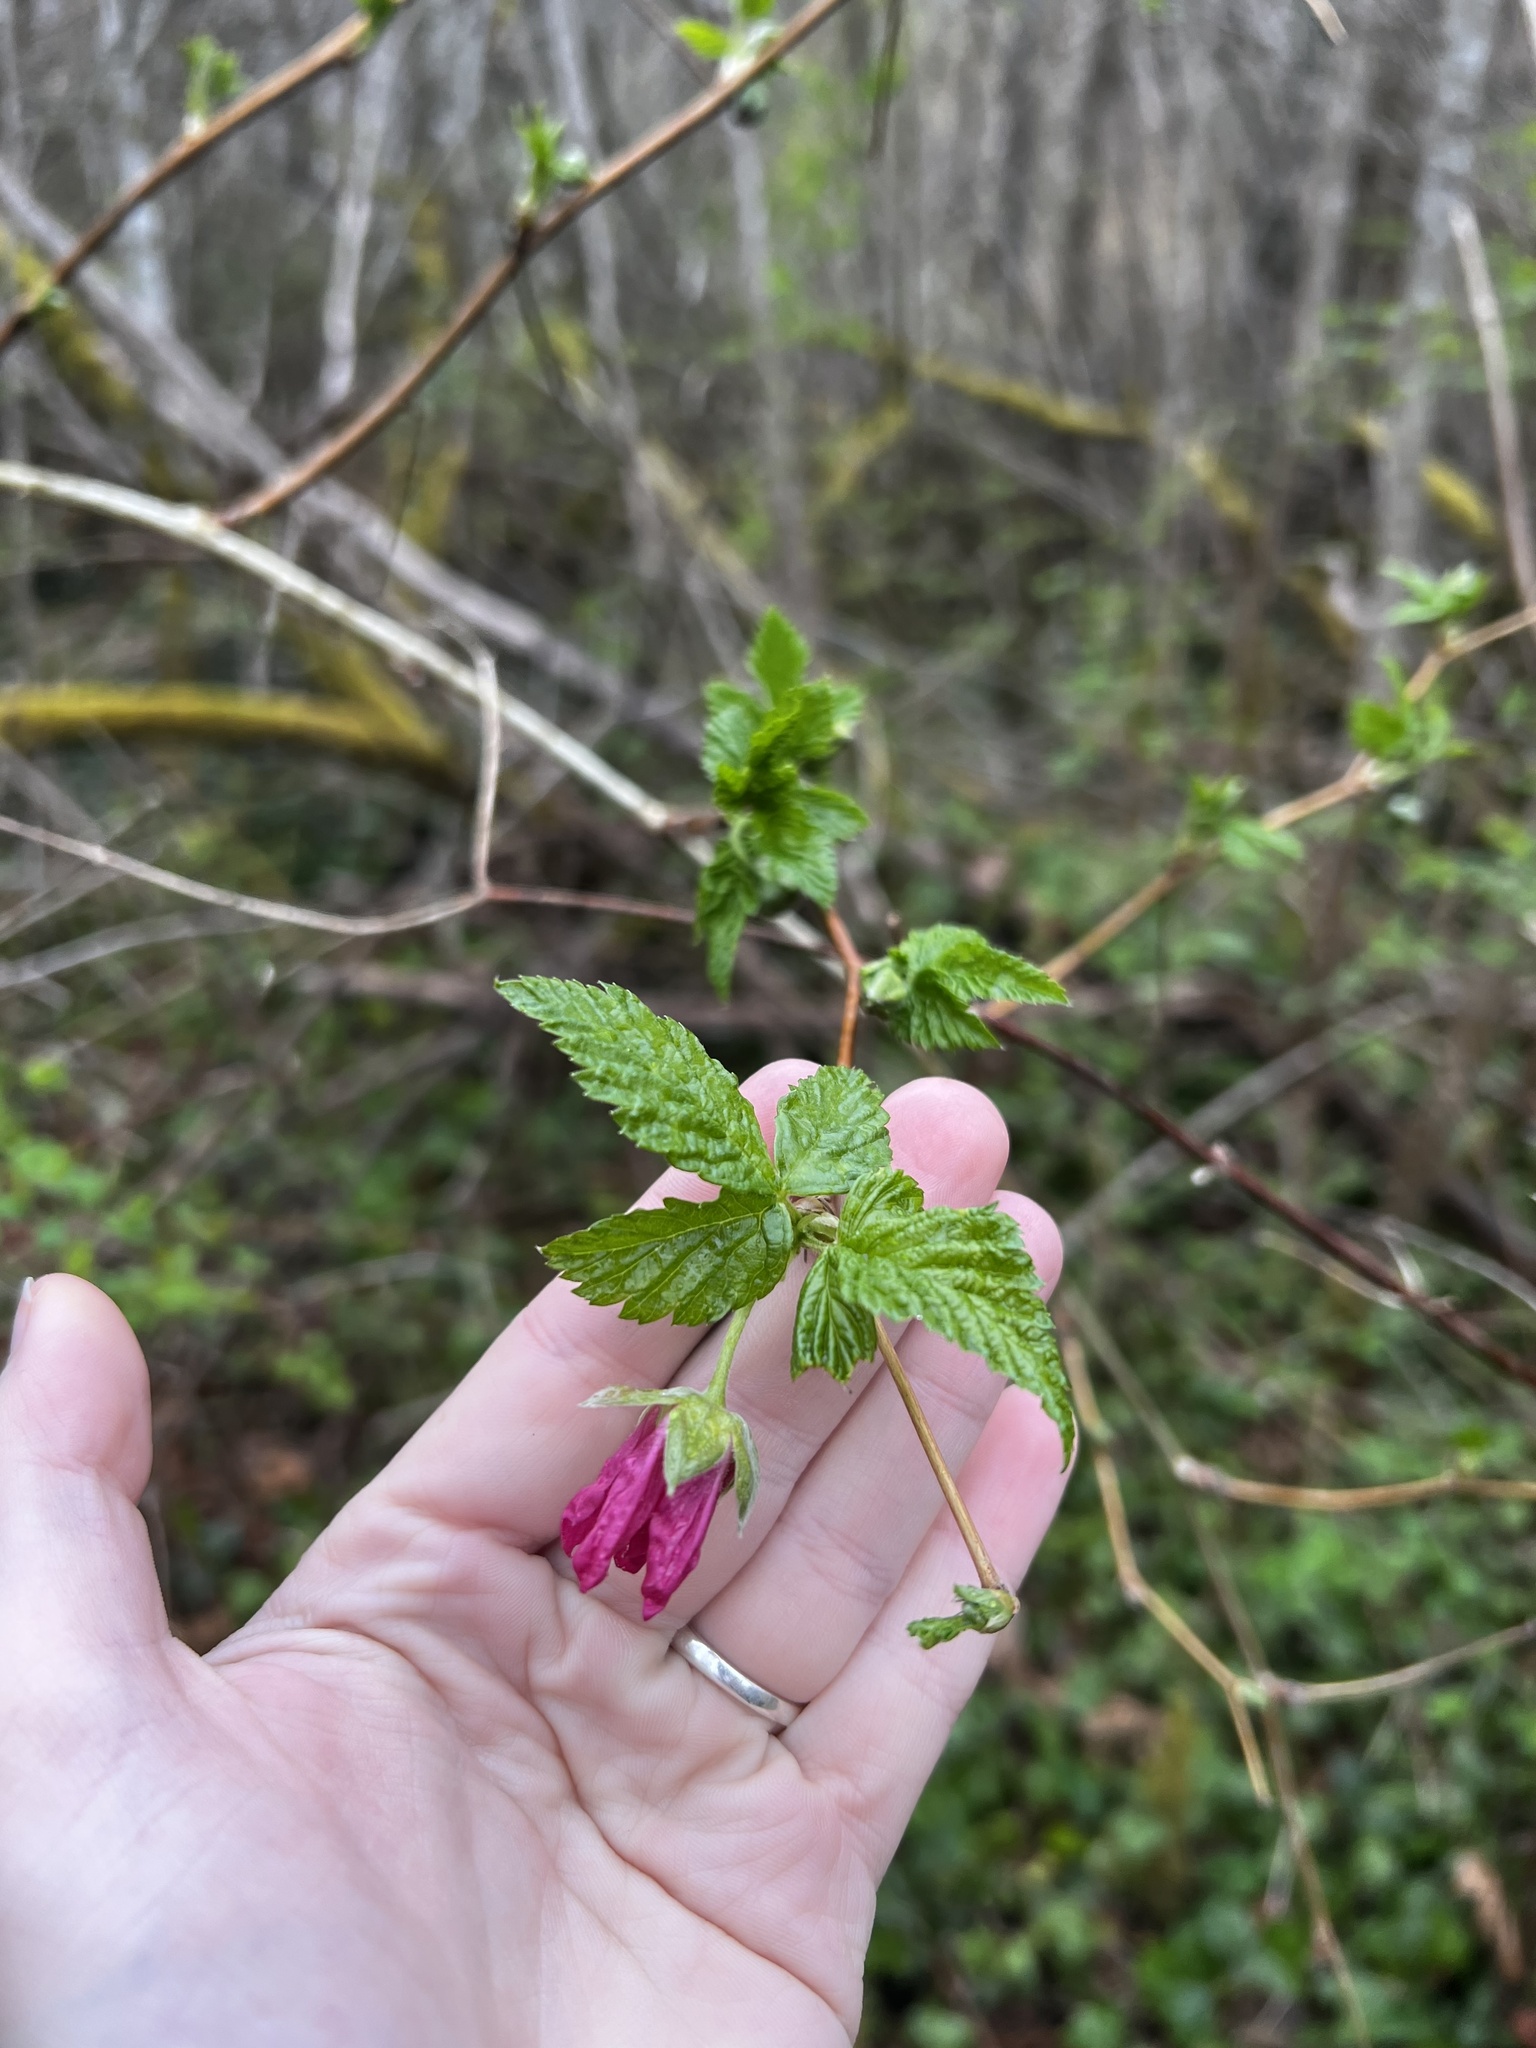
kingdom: Plantae
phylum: Tracheophyta
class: Magnoliopsida
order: Rosales
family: Rosaceae
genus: Rubus
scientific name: Rubus spectabilis
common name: Salmonberry
